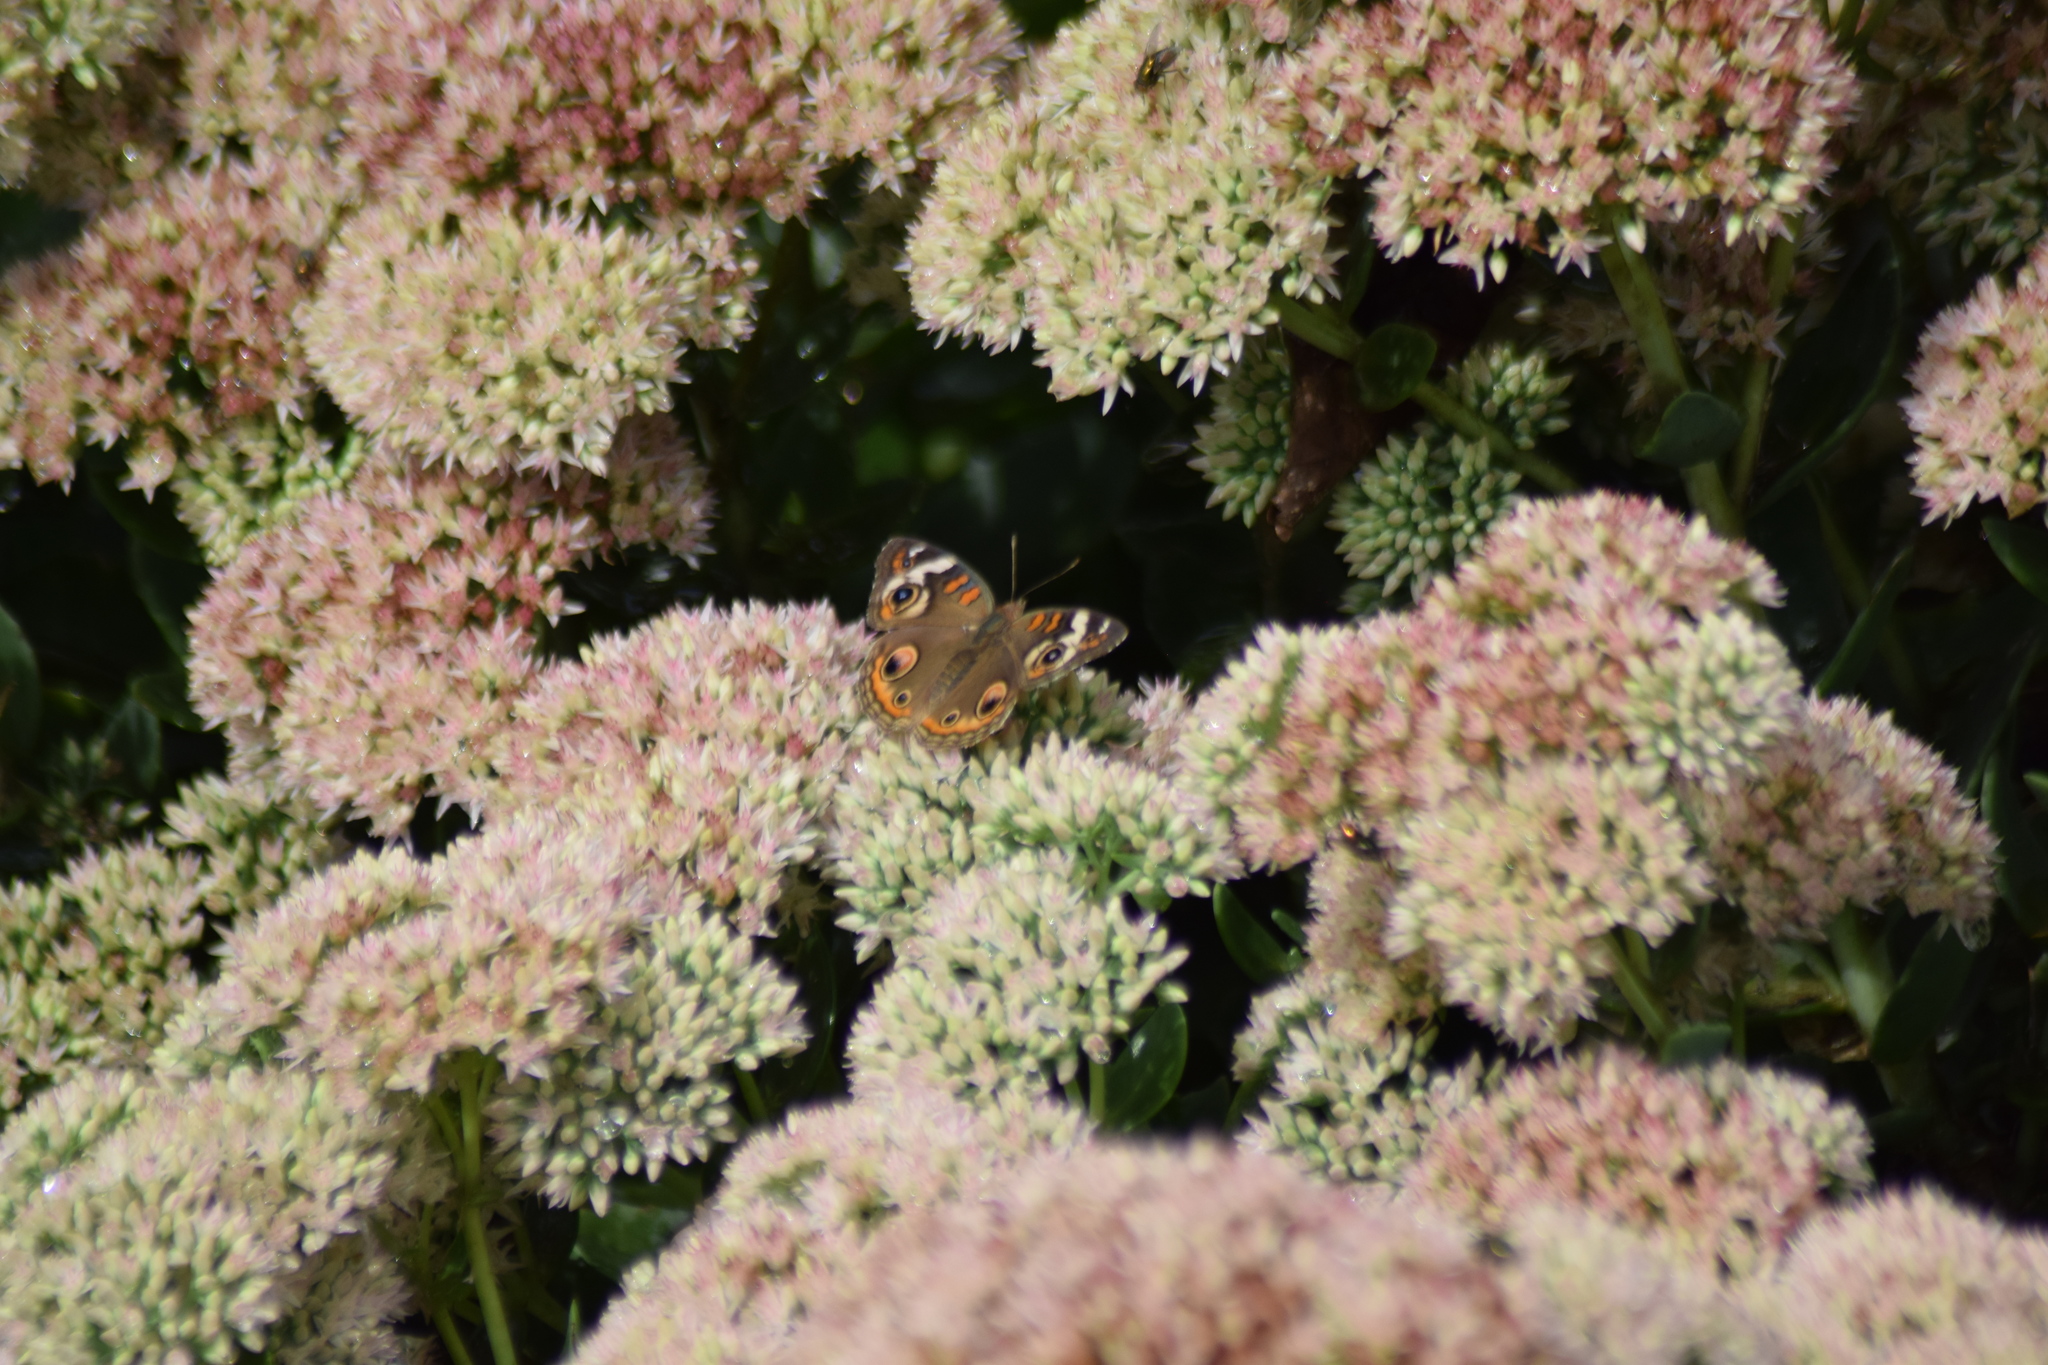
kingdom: Animalia
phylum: Arthropoda
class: Insecta
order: Lepidoptera
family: Nymphalidae
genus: Junonia
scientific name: Junonia coenia
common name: Common buckeye
